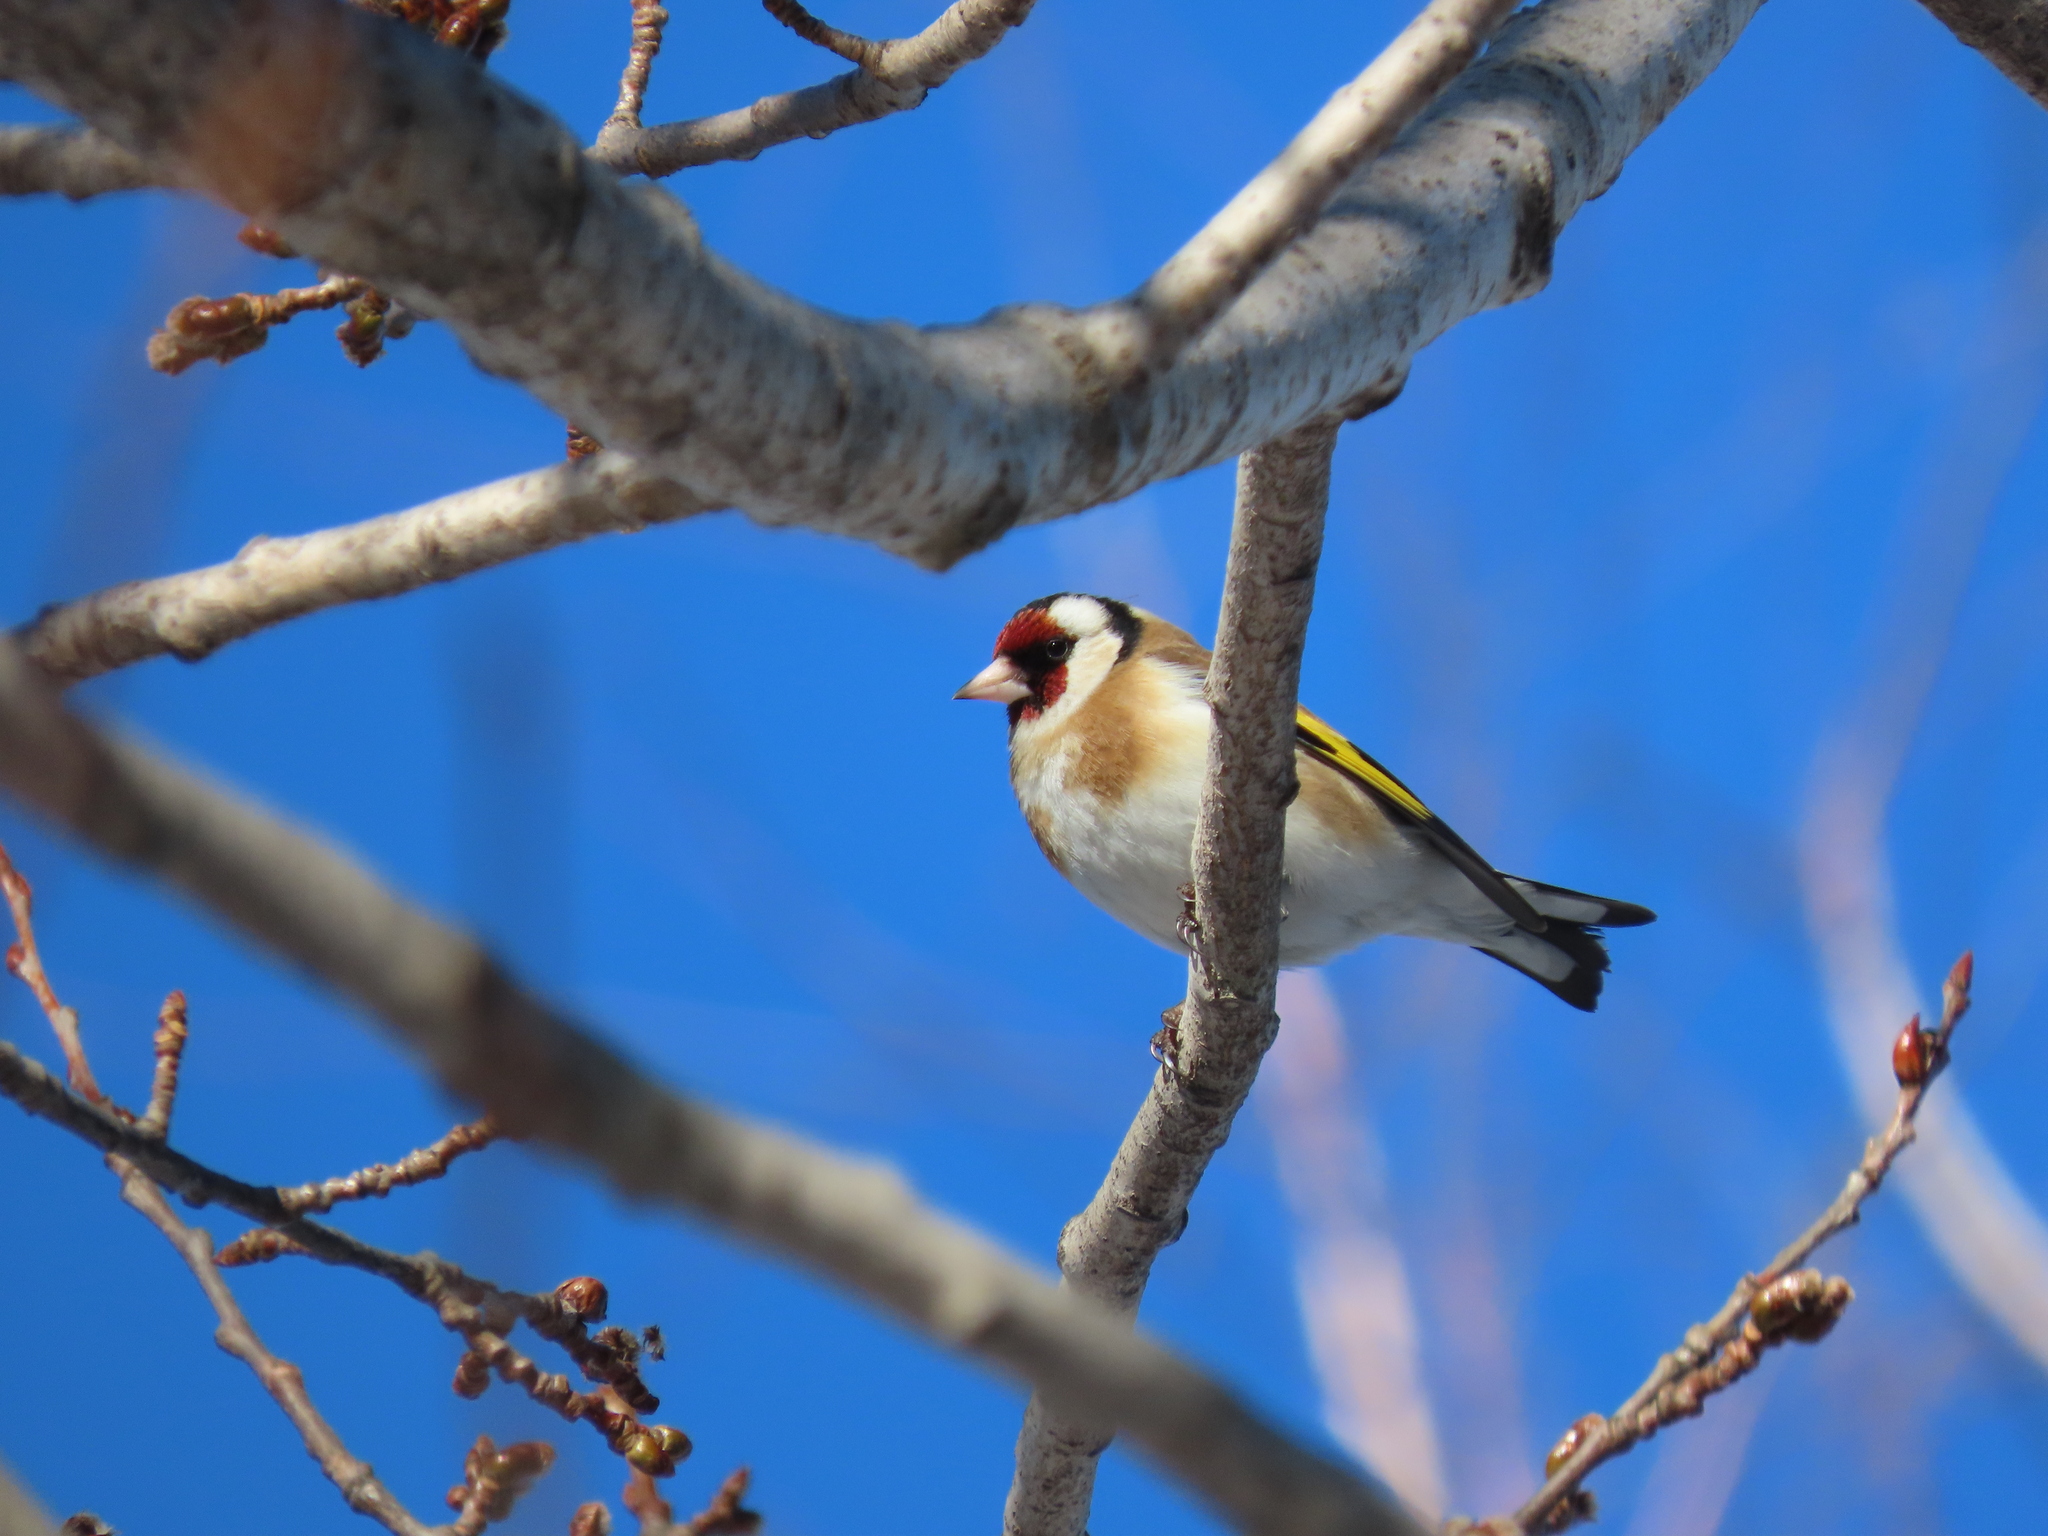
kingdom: Animalia
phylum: Chordata
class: Aves
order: Passeriformes
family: Fringillidae
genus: Carduelis
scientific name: Carduelis carduelis
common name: European goldfinch
